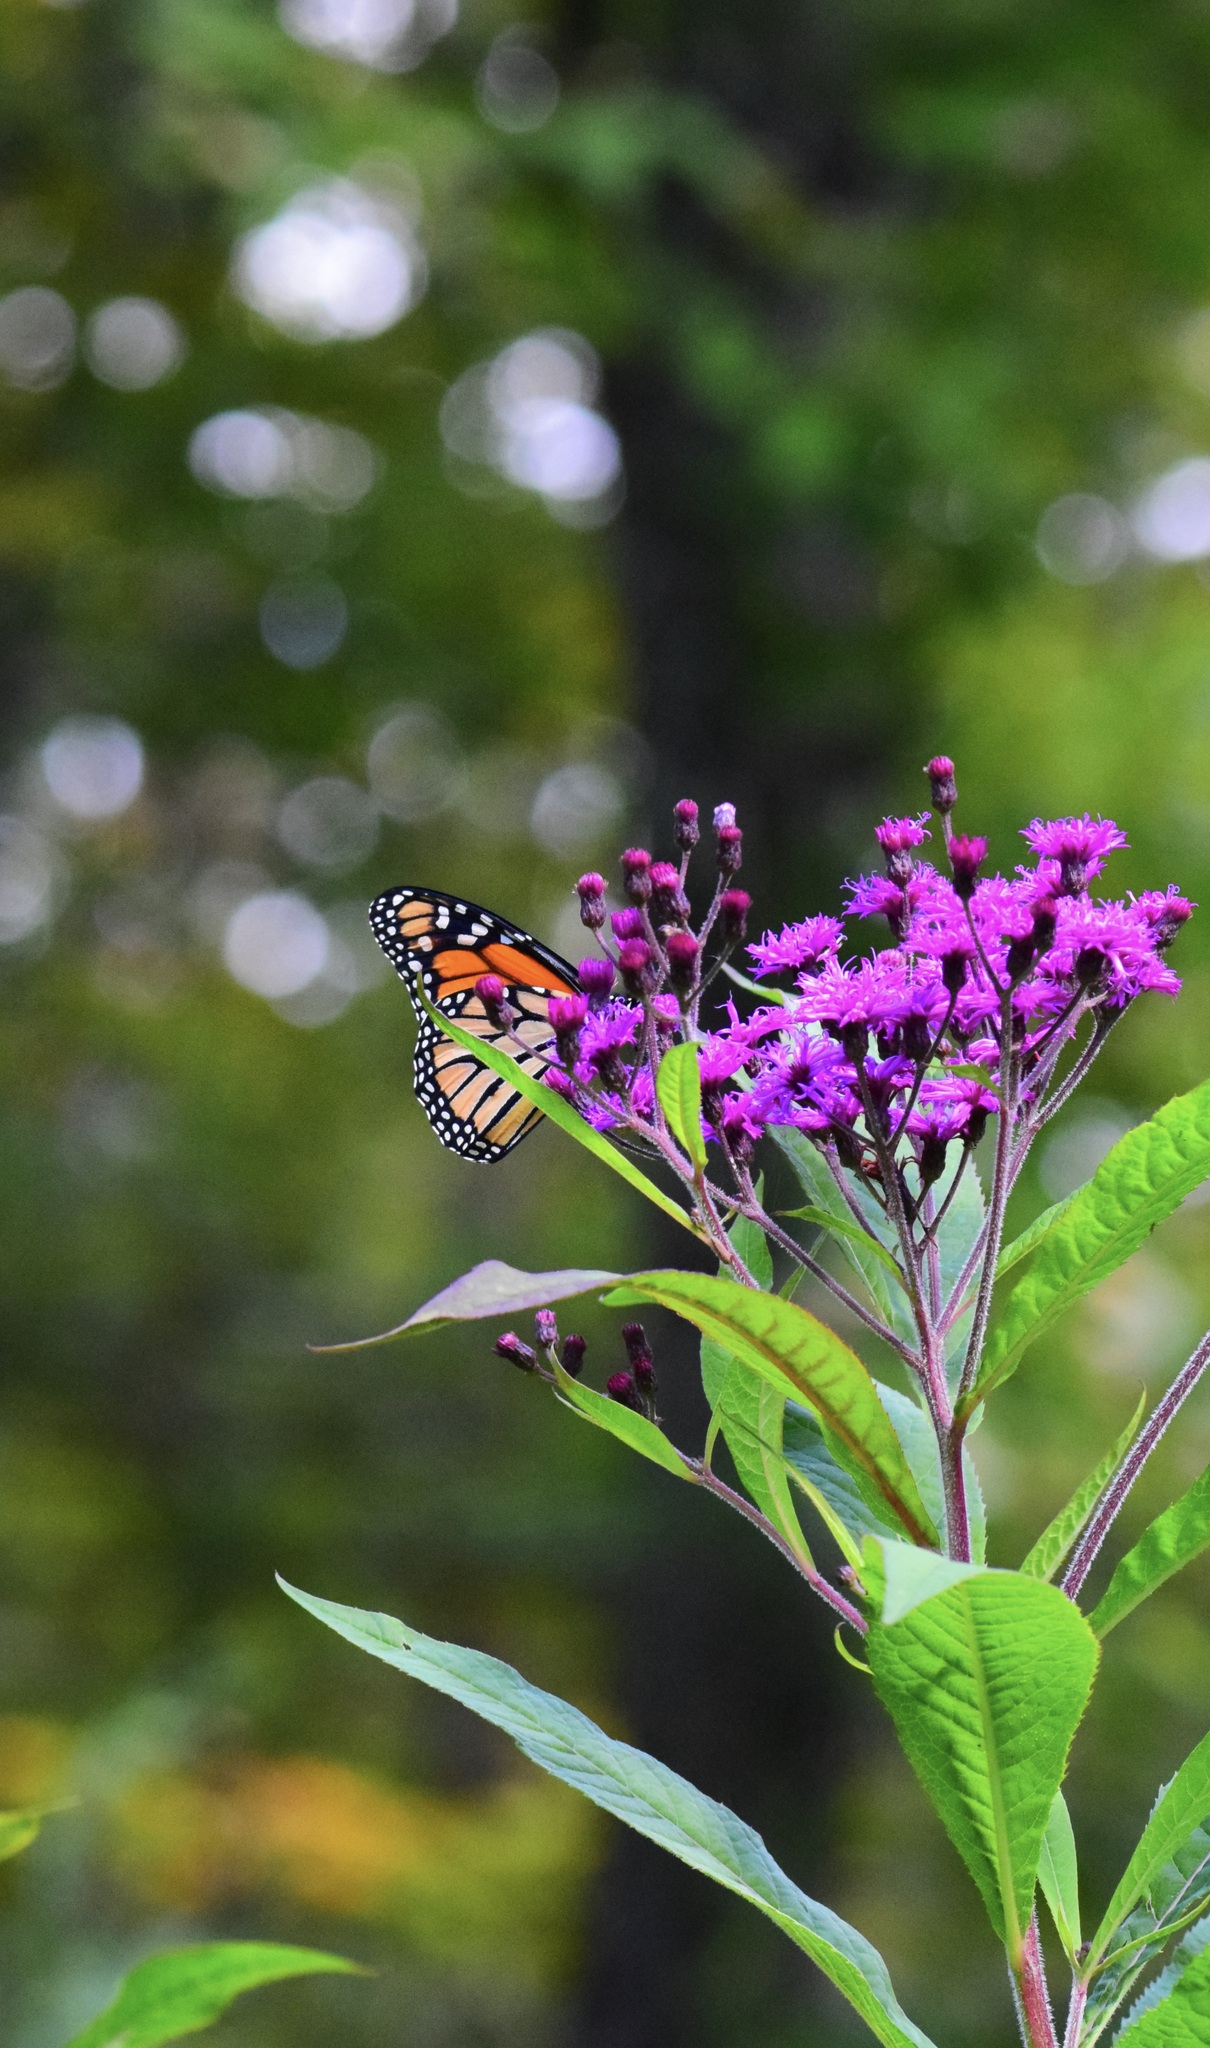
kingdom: Animalia
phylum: Arthropoda
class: Insecta
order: Lepidoptera
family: Nymphalidae
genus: Danaus
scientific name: Danaus plexippus
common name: Monarch
